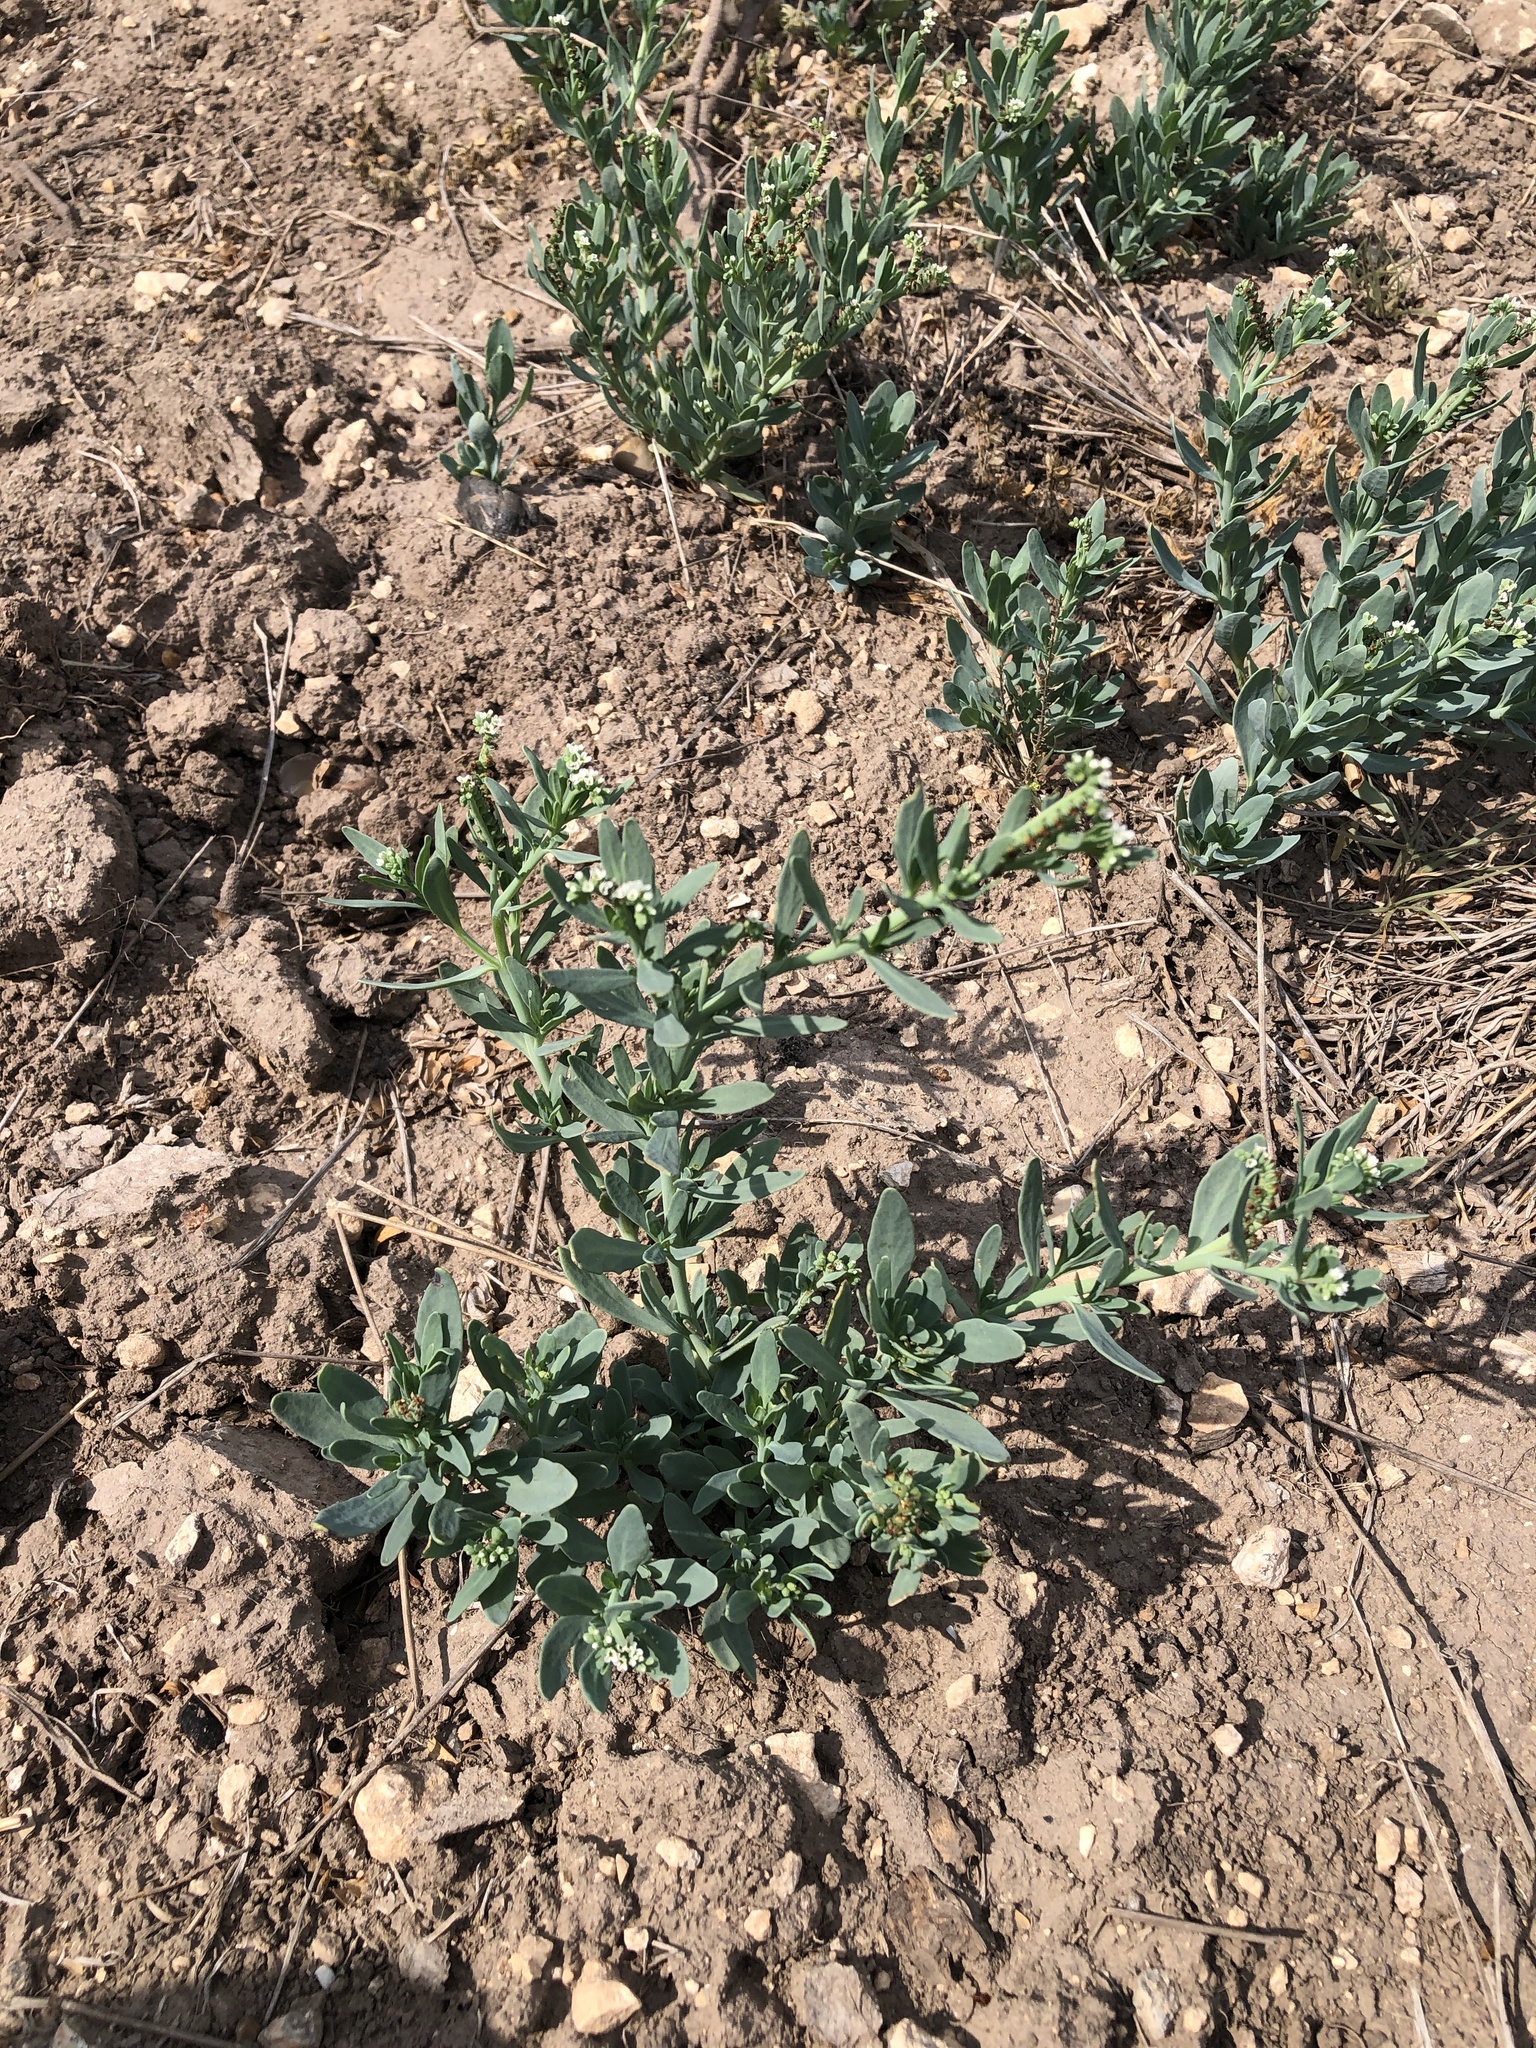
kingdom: Plantae
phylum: Tracheophyta
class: Magnoliopsida
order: Boraginales
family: Heliotropiaceae
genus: Heliotropium
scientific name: Heliotropium curassavicum
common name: Seaside heliotrope
